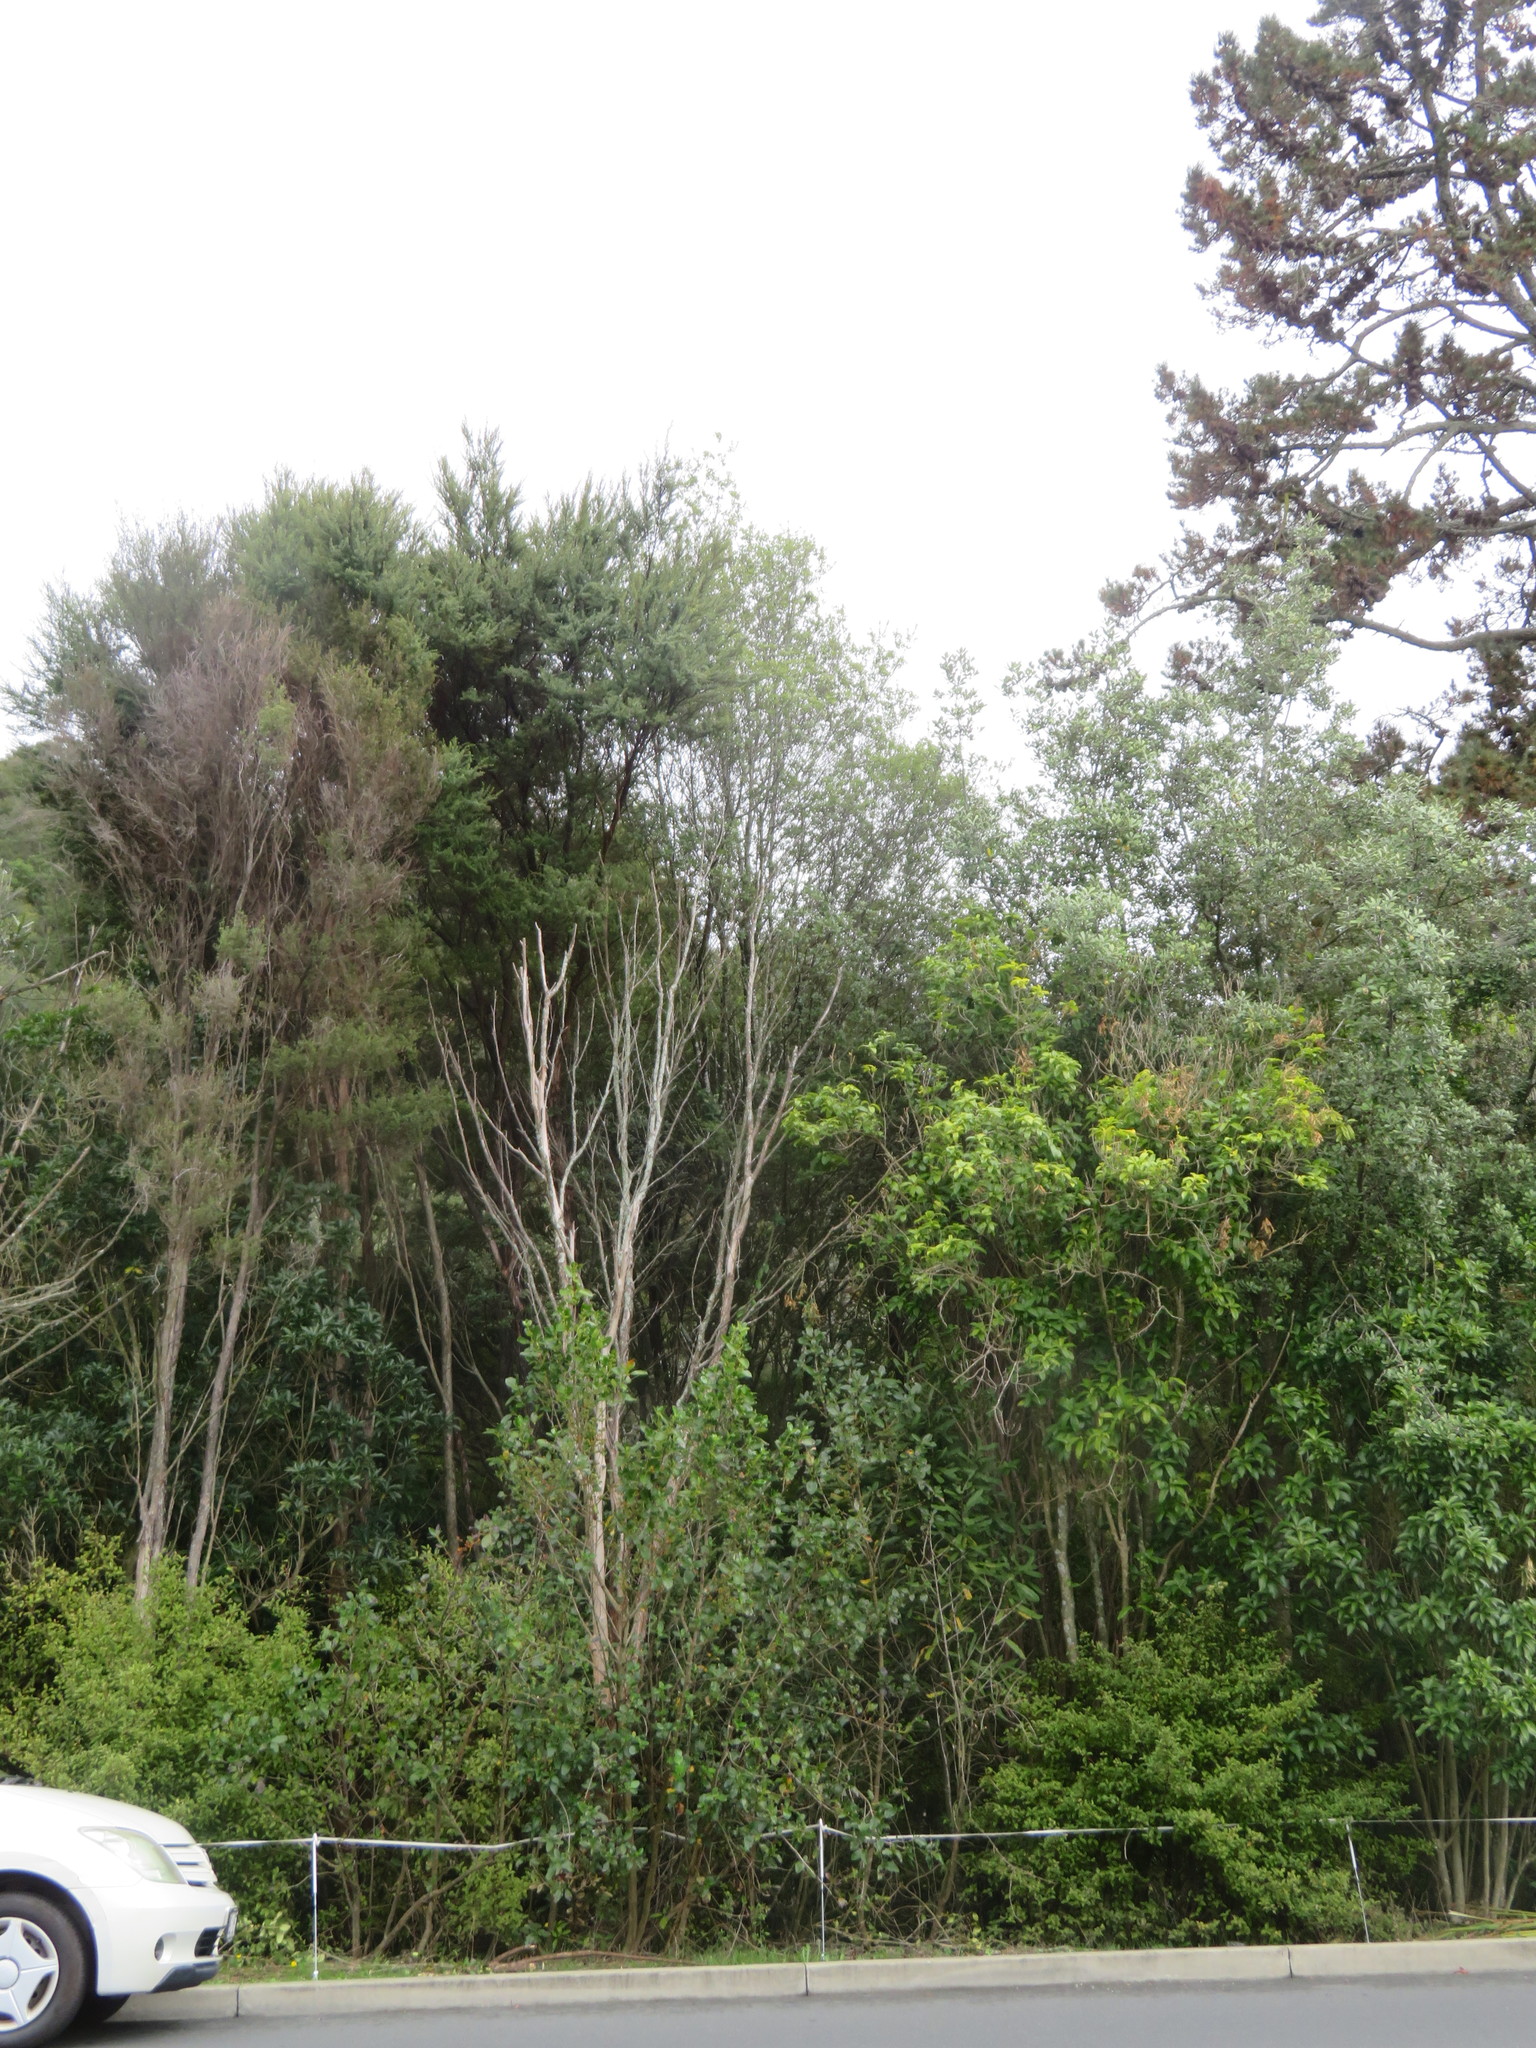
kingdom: Plantae
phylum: Tracheophyta
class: Magnoliopsida
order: Myrtales
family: Myrtaceae
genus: Kunzea
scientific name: Kunzea robusta
